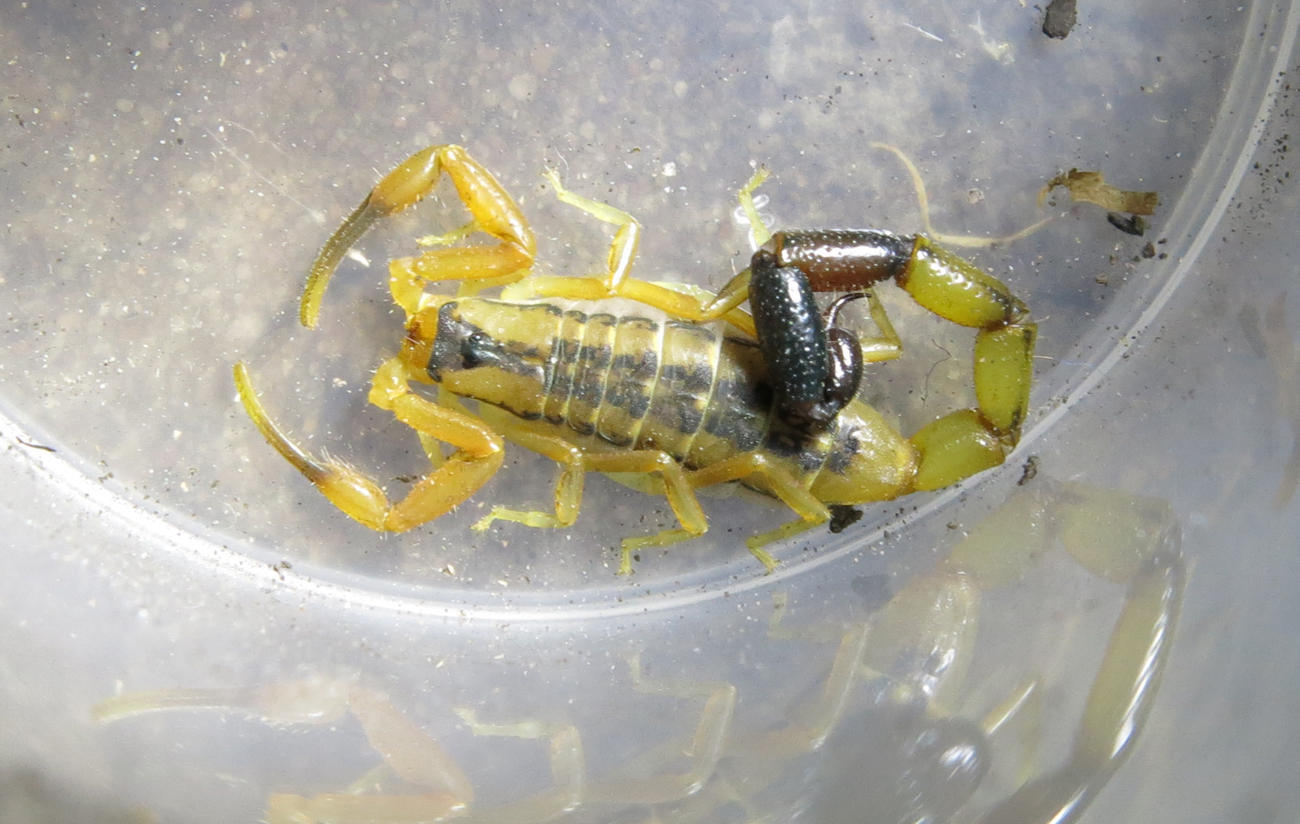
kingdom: Animalia
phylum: Arthropoda
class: Arachnida
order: Scorpiones
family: Buthidae
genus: Uroplectes
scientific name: Uroplectes chubbi
